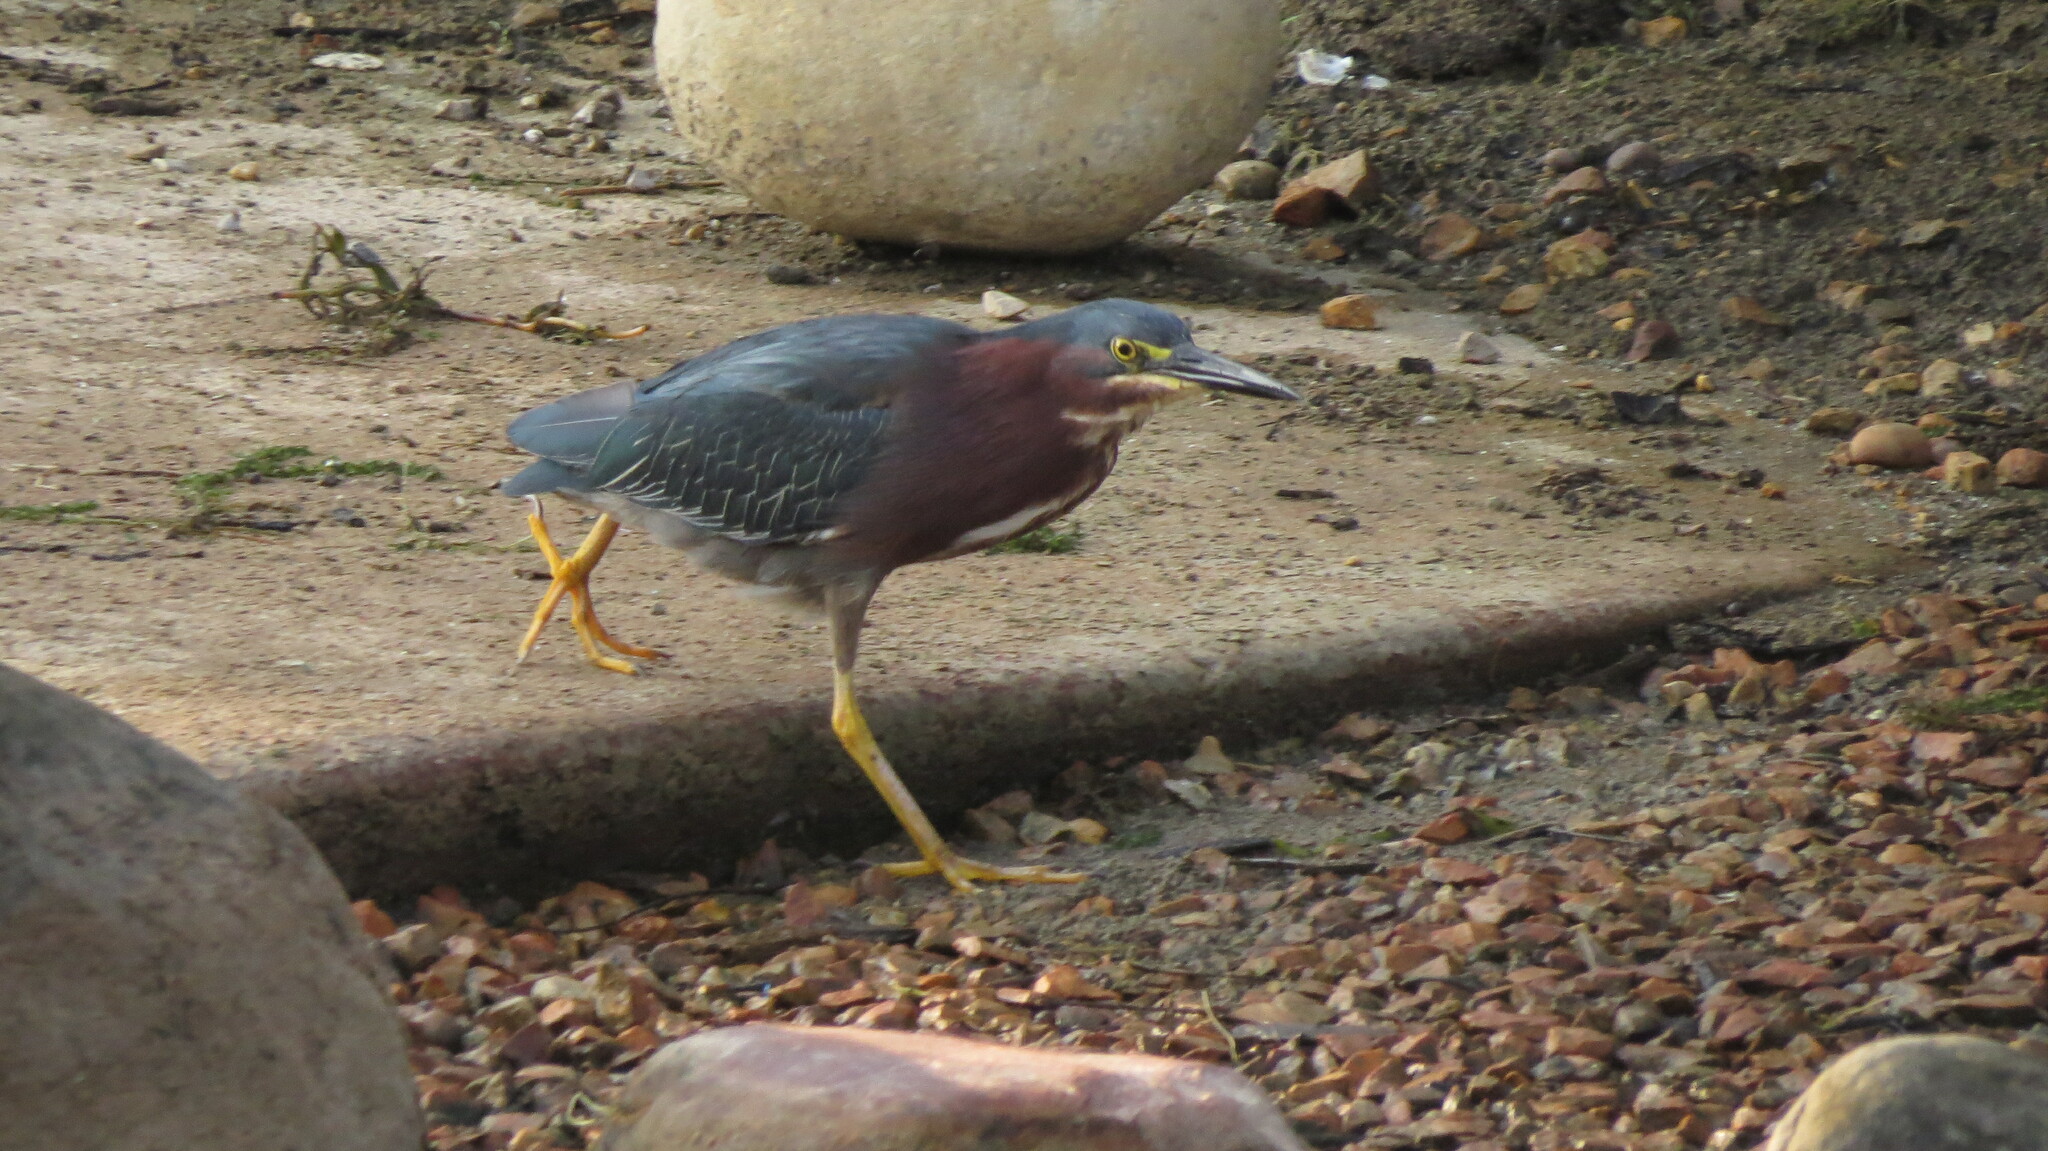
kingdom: Animalia
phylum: Chordata
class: Aves
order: Pelecaniformes
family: Ardeidae
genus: Butorides
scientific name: Butorides virescens
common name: Green heron
